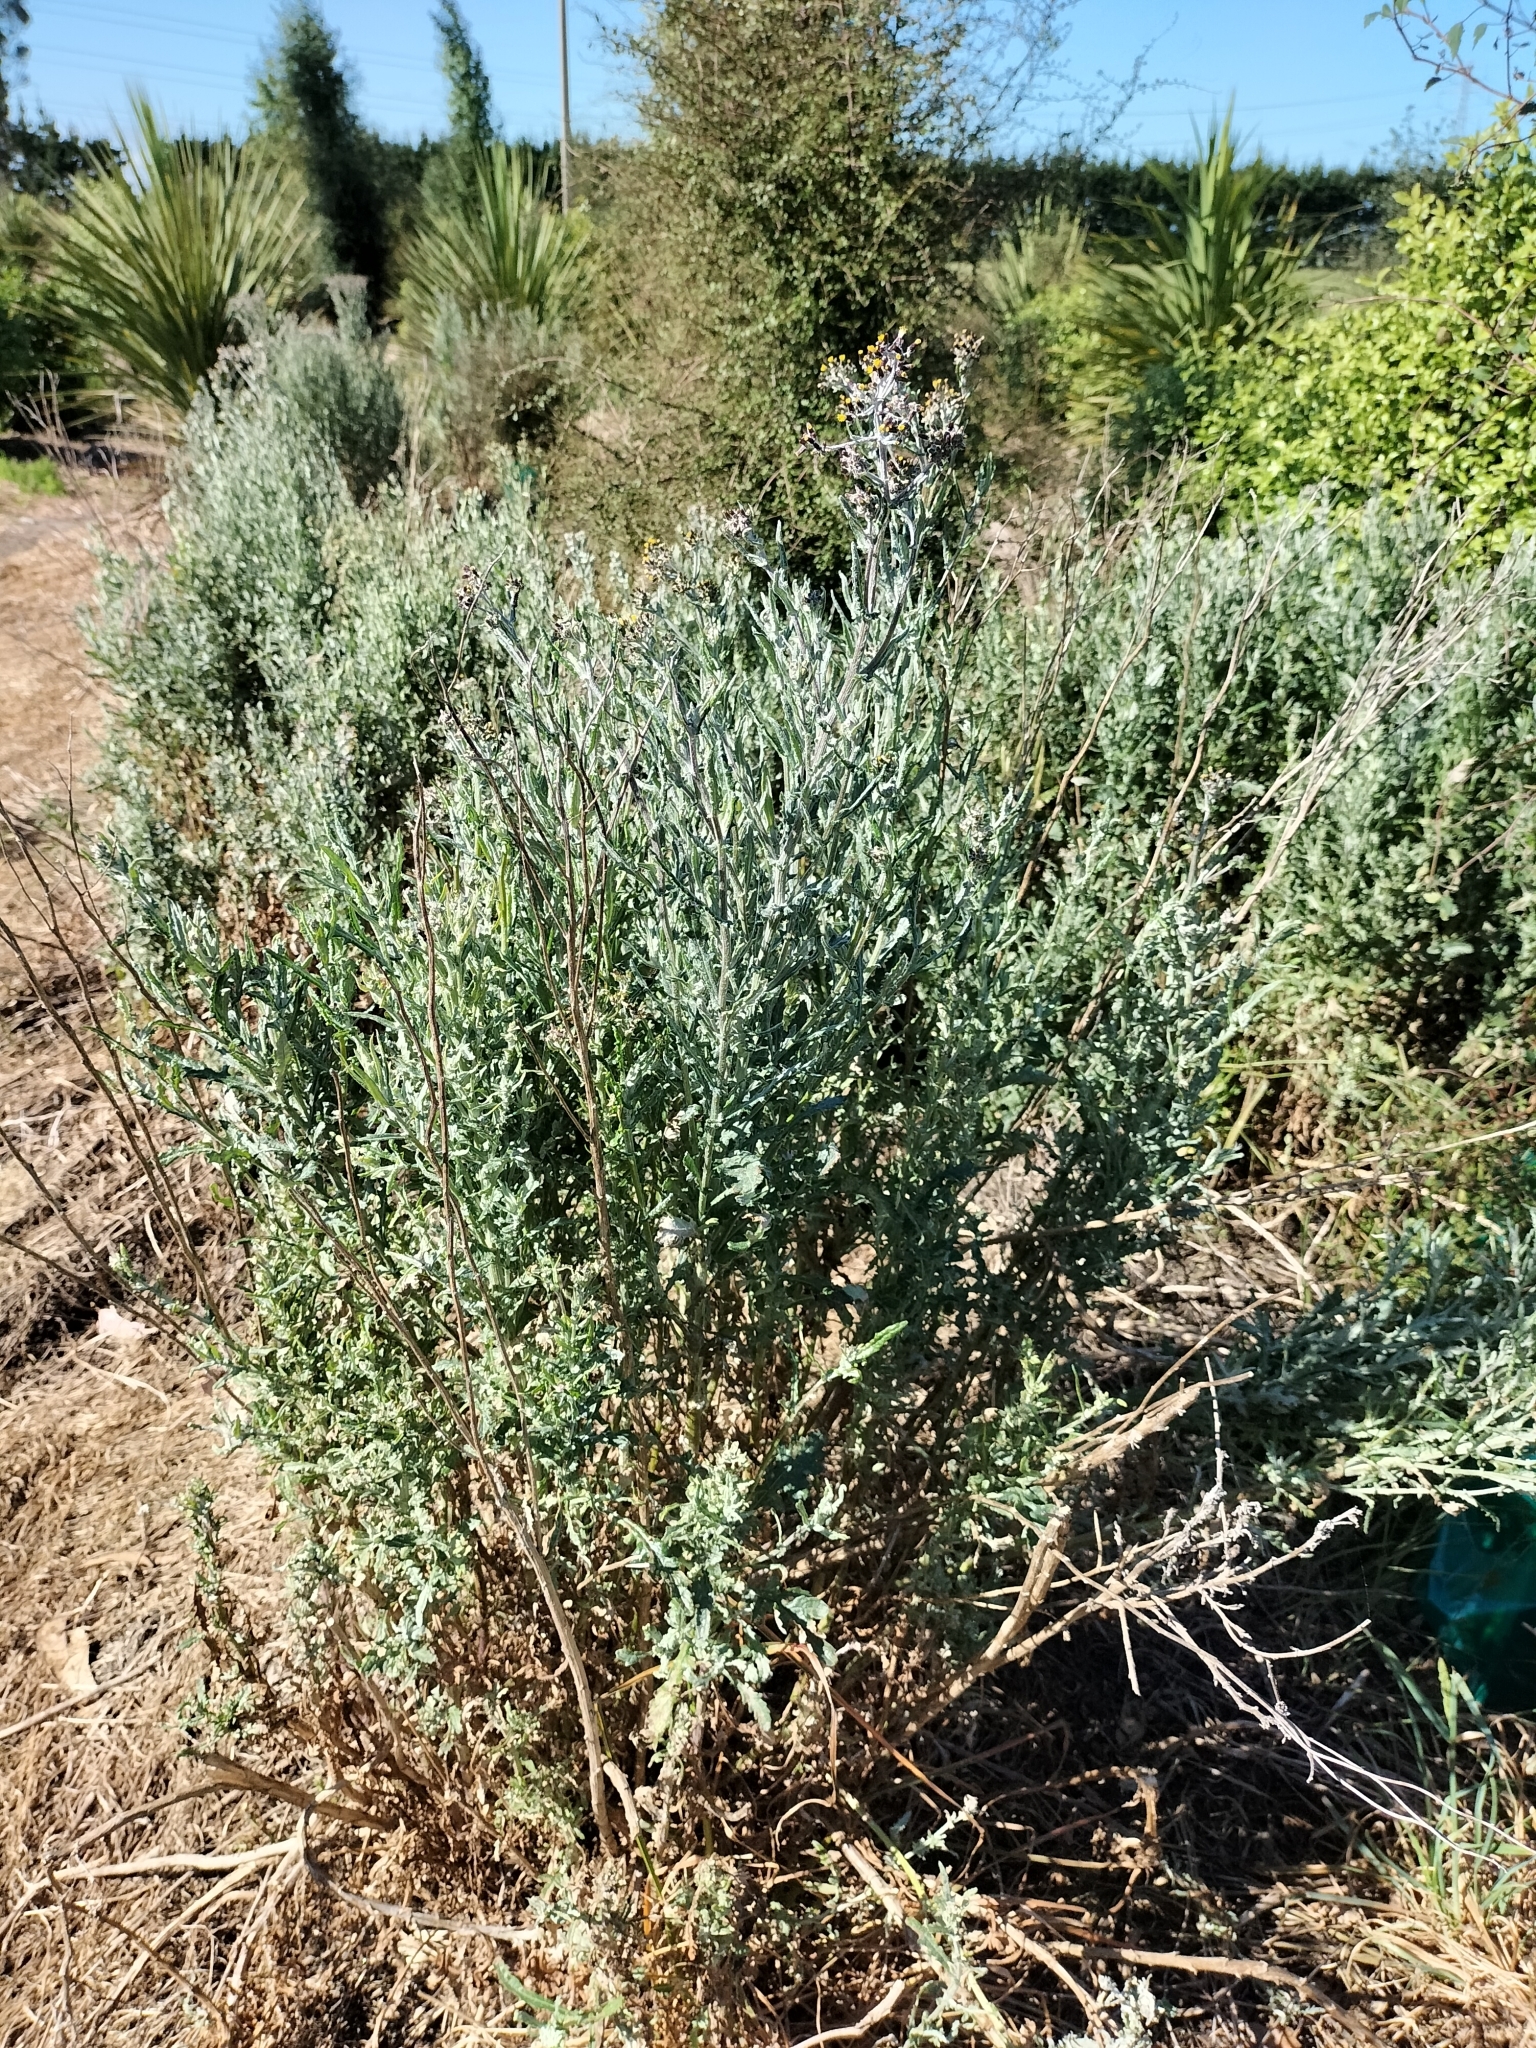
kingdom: Plantae
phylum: Tracheophyta
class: Magnoliopsida
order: Asterales
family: Asteraceae
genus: Senecio
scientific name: Senecio glomeratus
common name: Cutleaf burnweed
